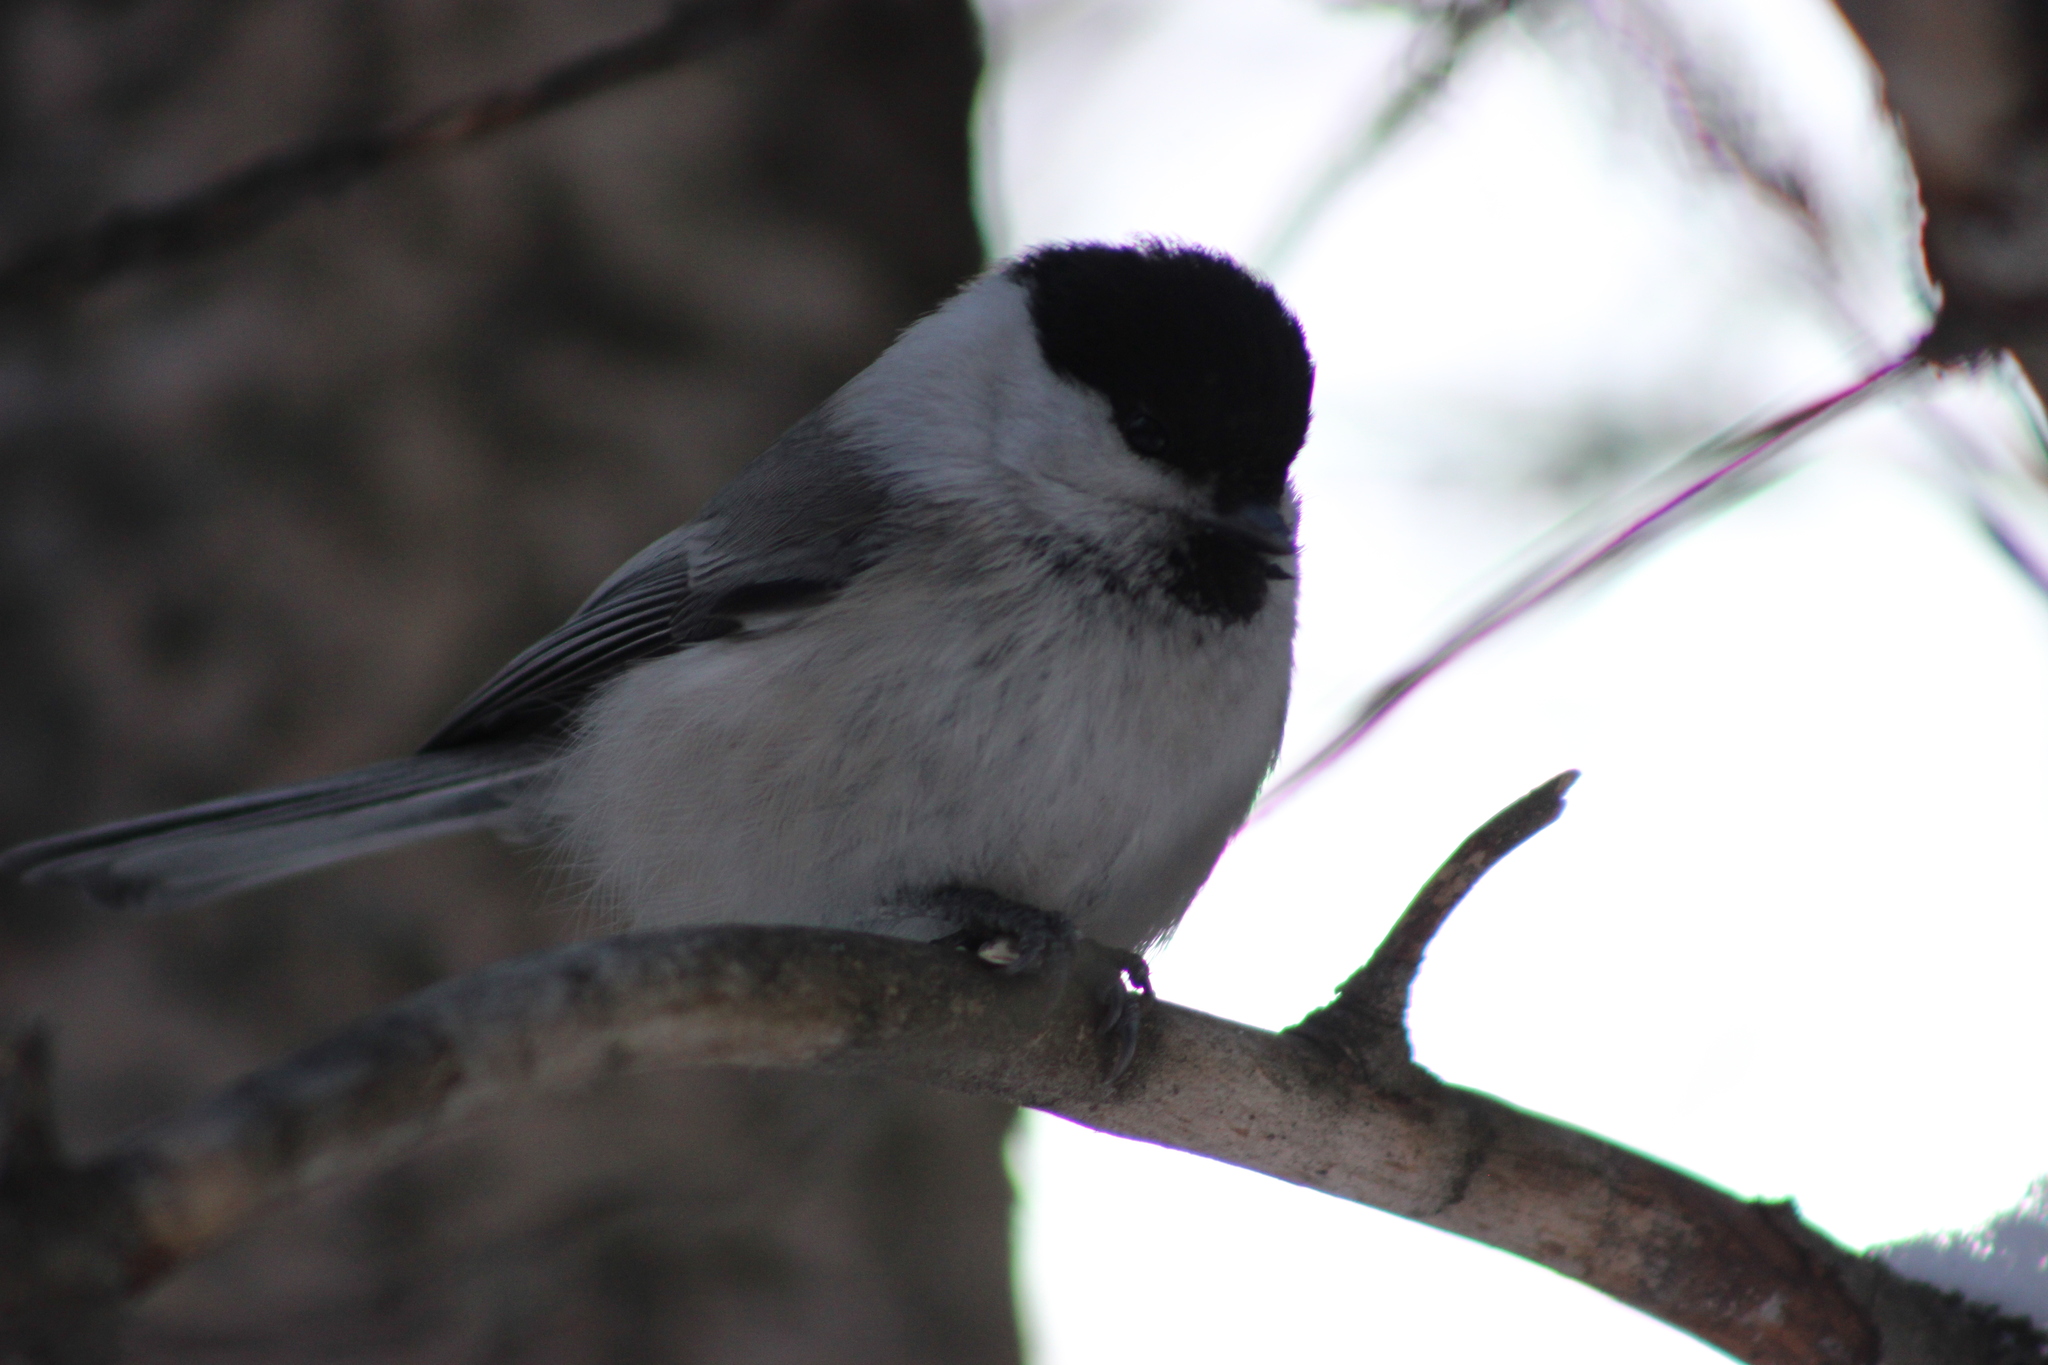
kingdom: Animalia
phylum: Chordata
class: Aves
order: Passeriformes
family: Paridae
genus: Poecile
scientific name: Poecile montanus
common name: Willow tit
